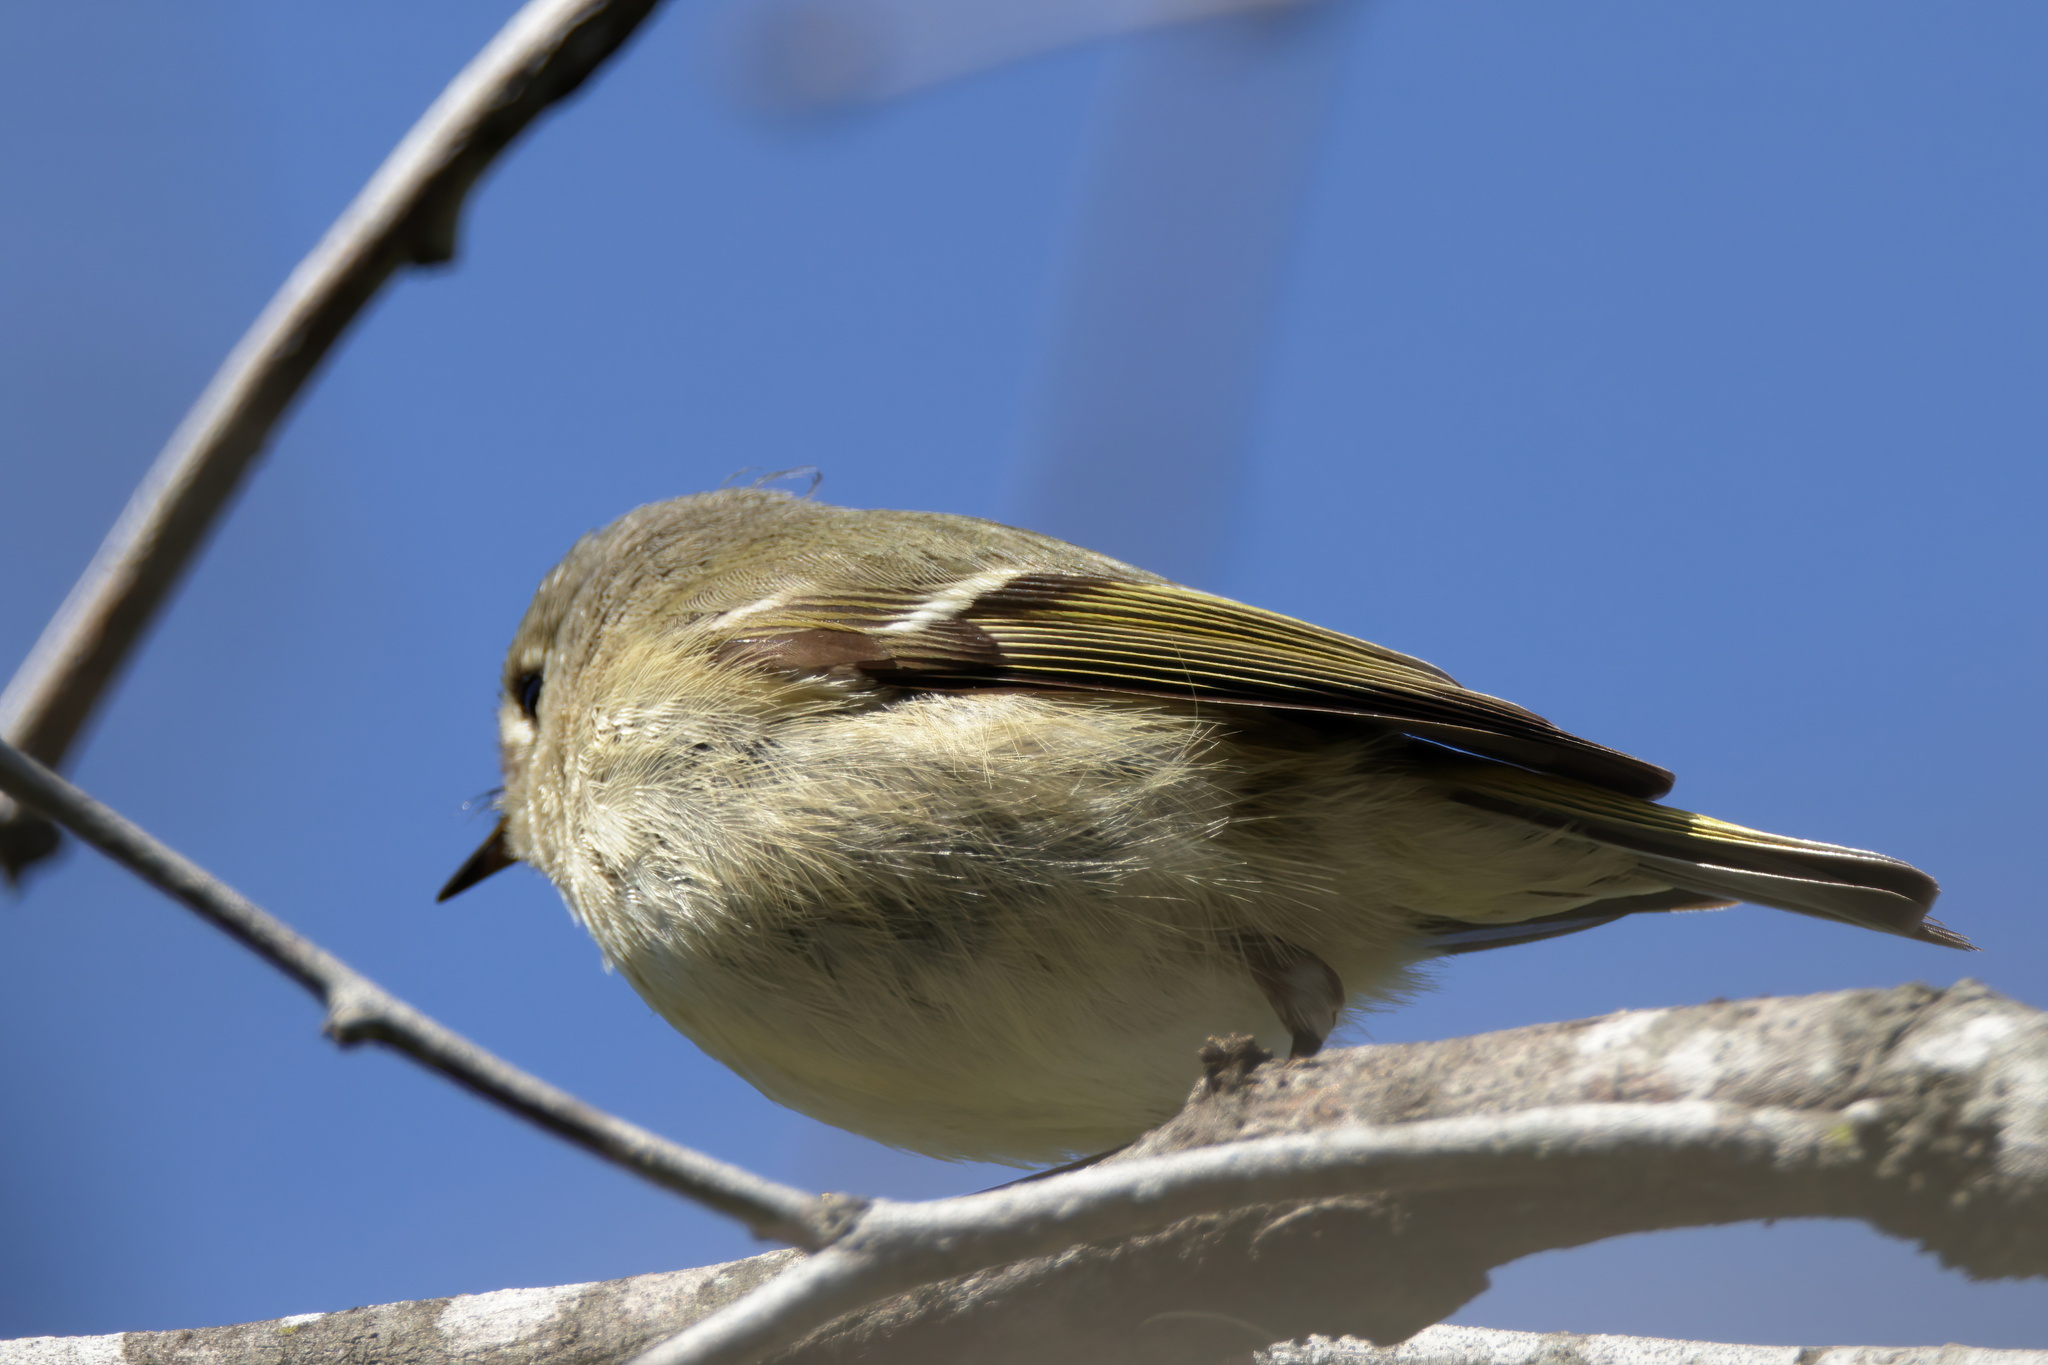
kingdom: Animalia
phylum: Chordata
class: Aves
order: Passeriformes
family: Regulidae
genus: Regulus
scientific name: Regulus calendula
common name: Ruby-crowned kinglet
